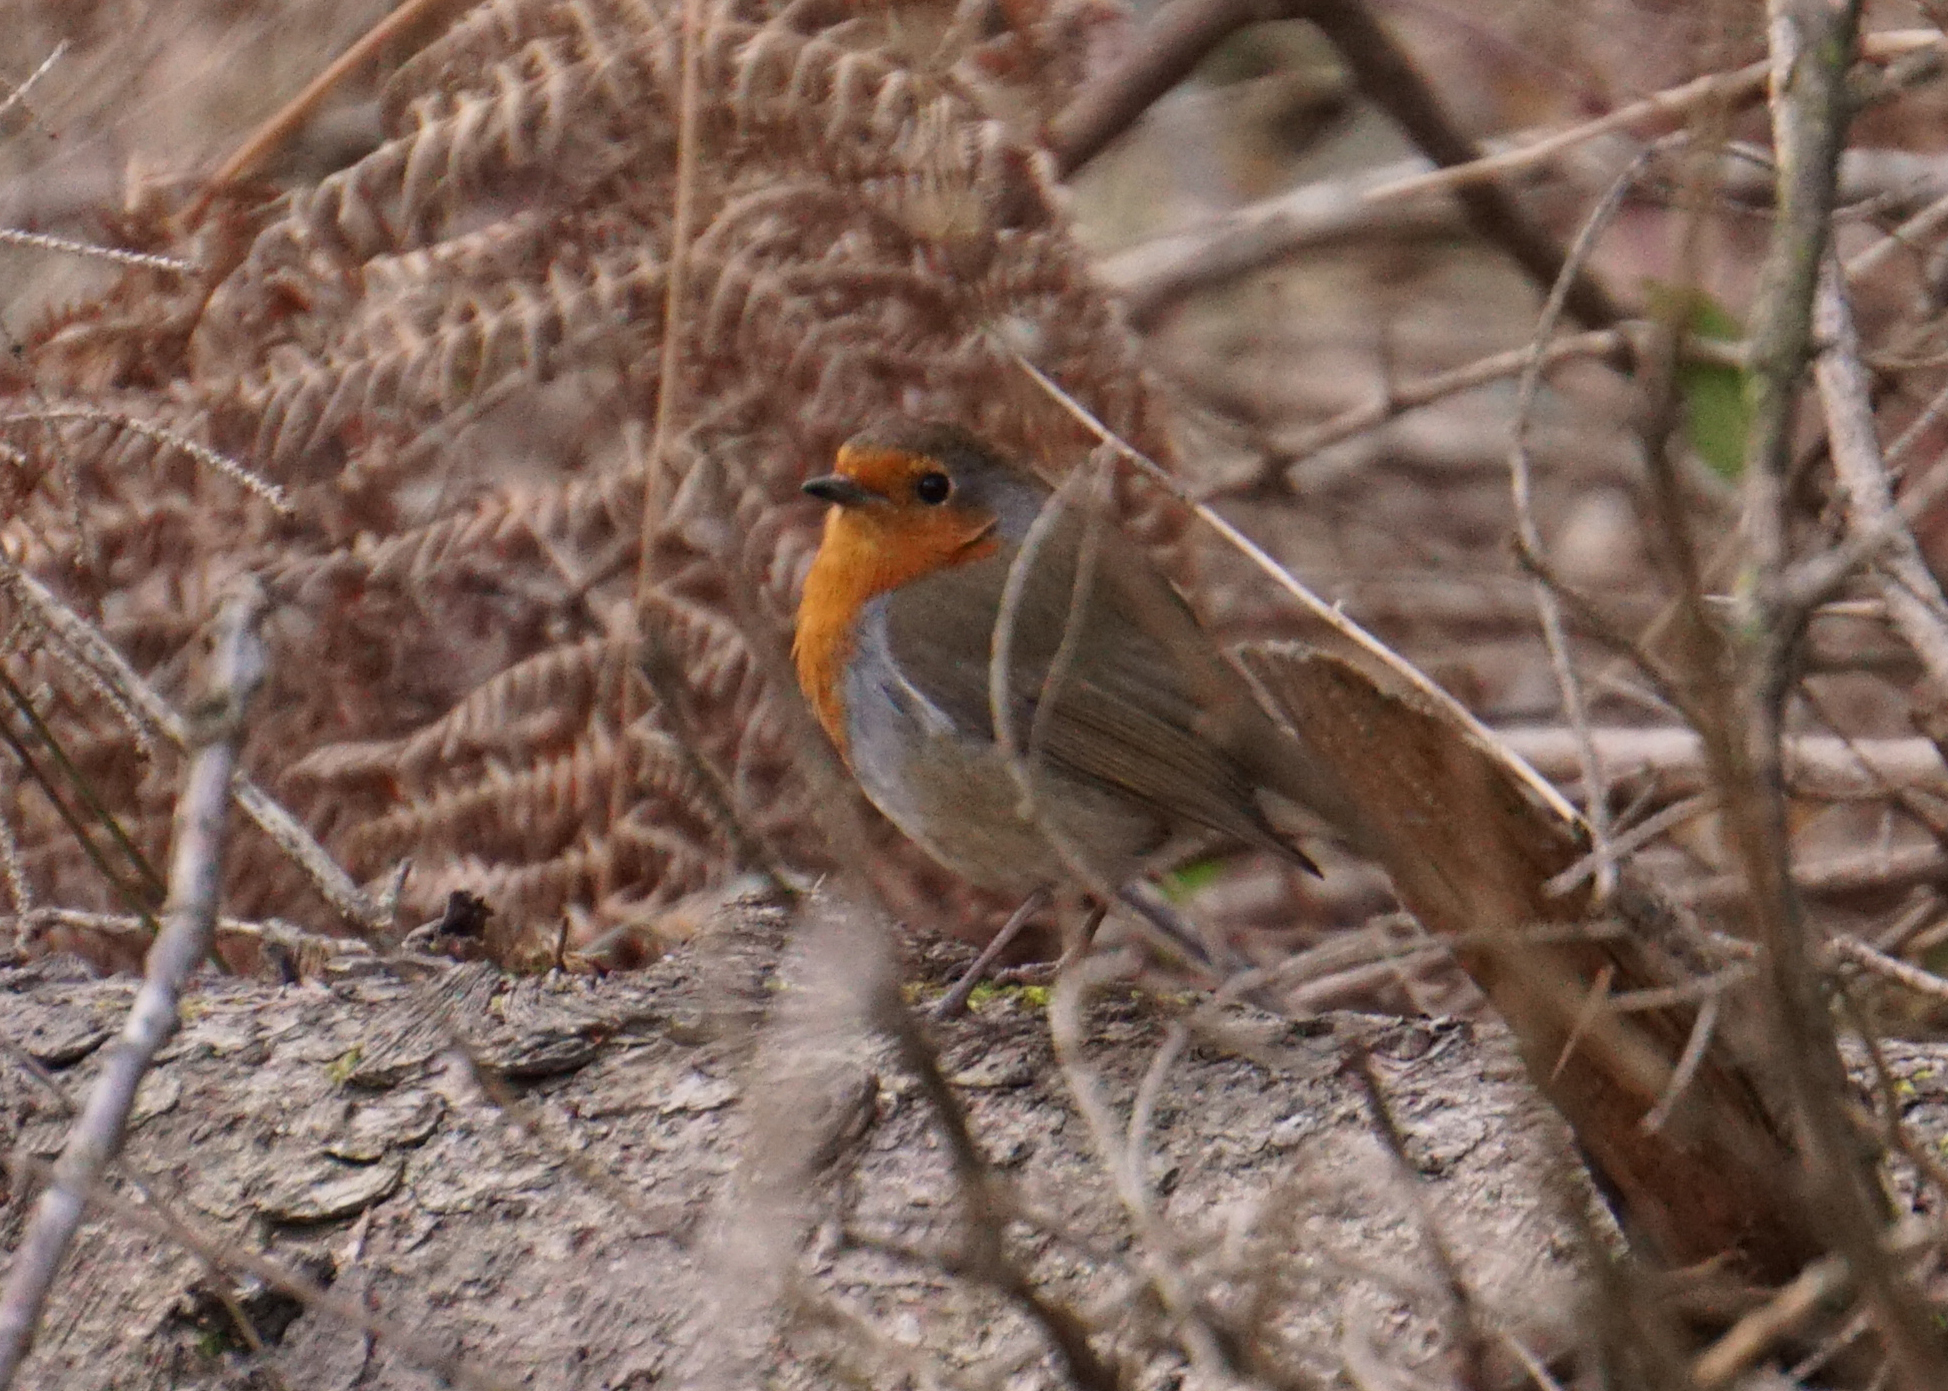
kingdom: Animalia
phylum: Chordata
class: Aves
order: Passeriformes
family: Muscicapidae
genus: Erithacus
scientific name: Erithacus rubecula
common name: European robin
